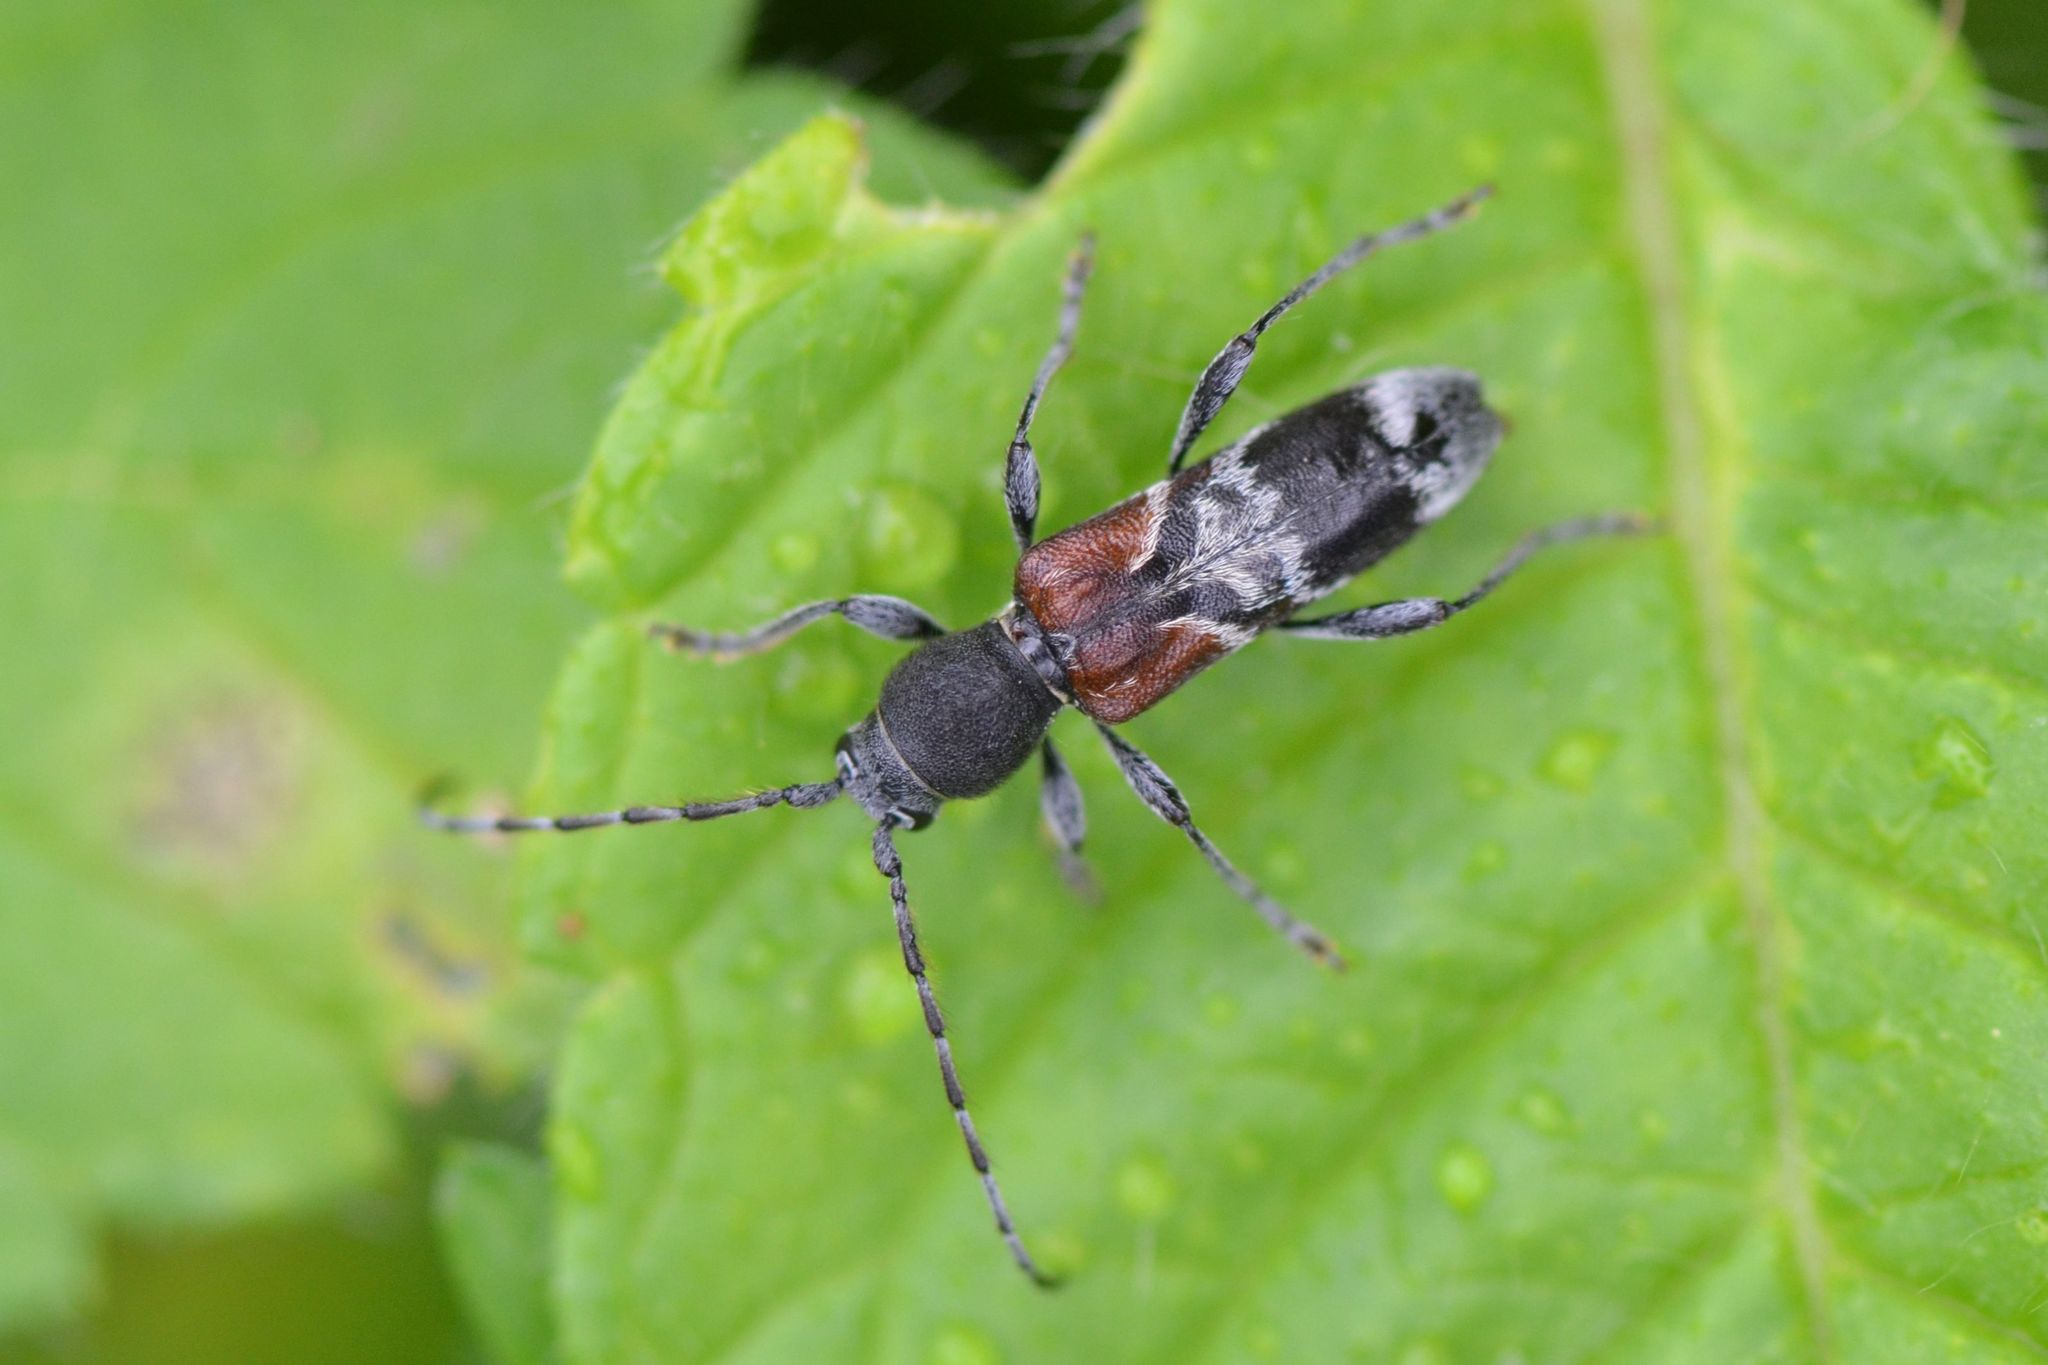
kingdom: Animalia
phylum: Arthropoda
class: Insecta
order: Coleoptera
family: Cerambycidae
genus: Anaglyptus
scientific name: Anaglyptus mysticus
